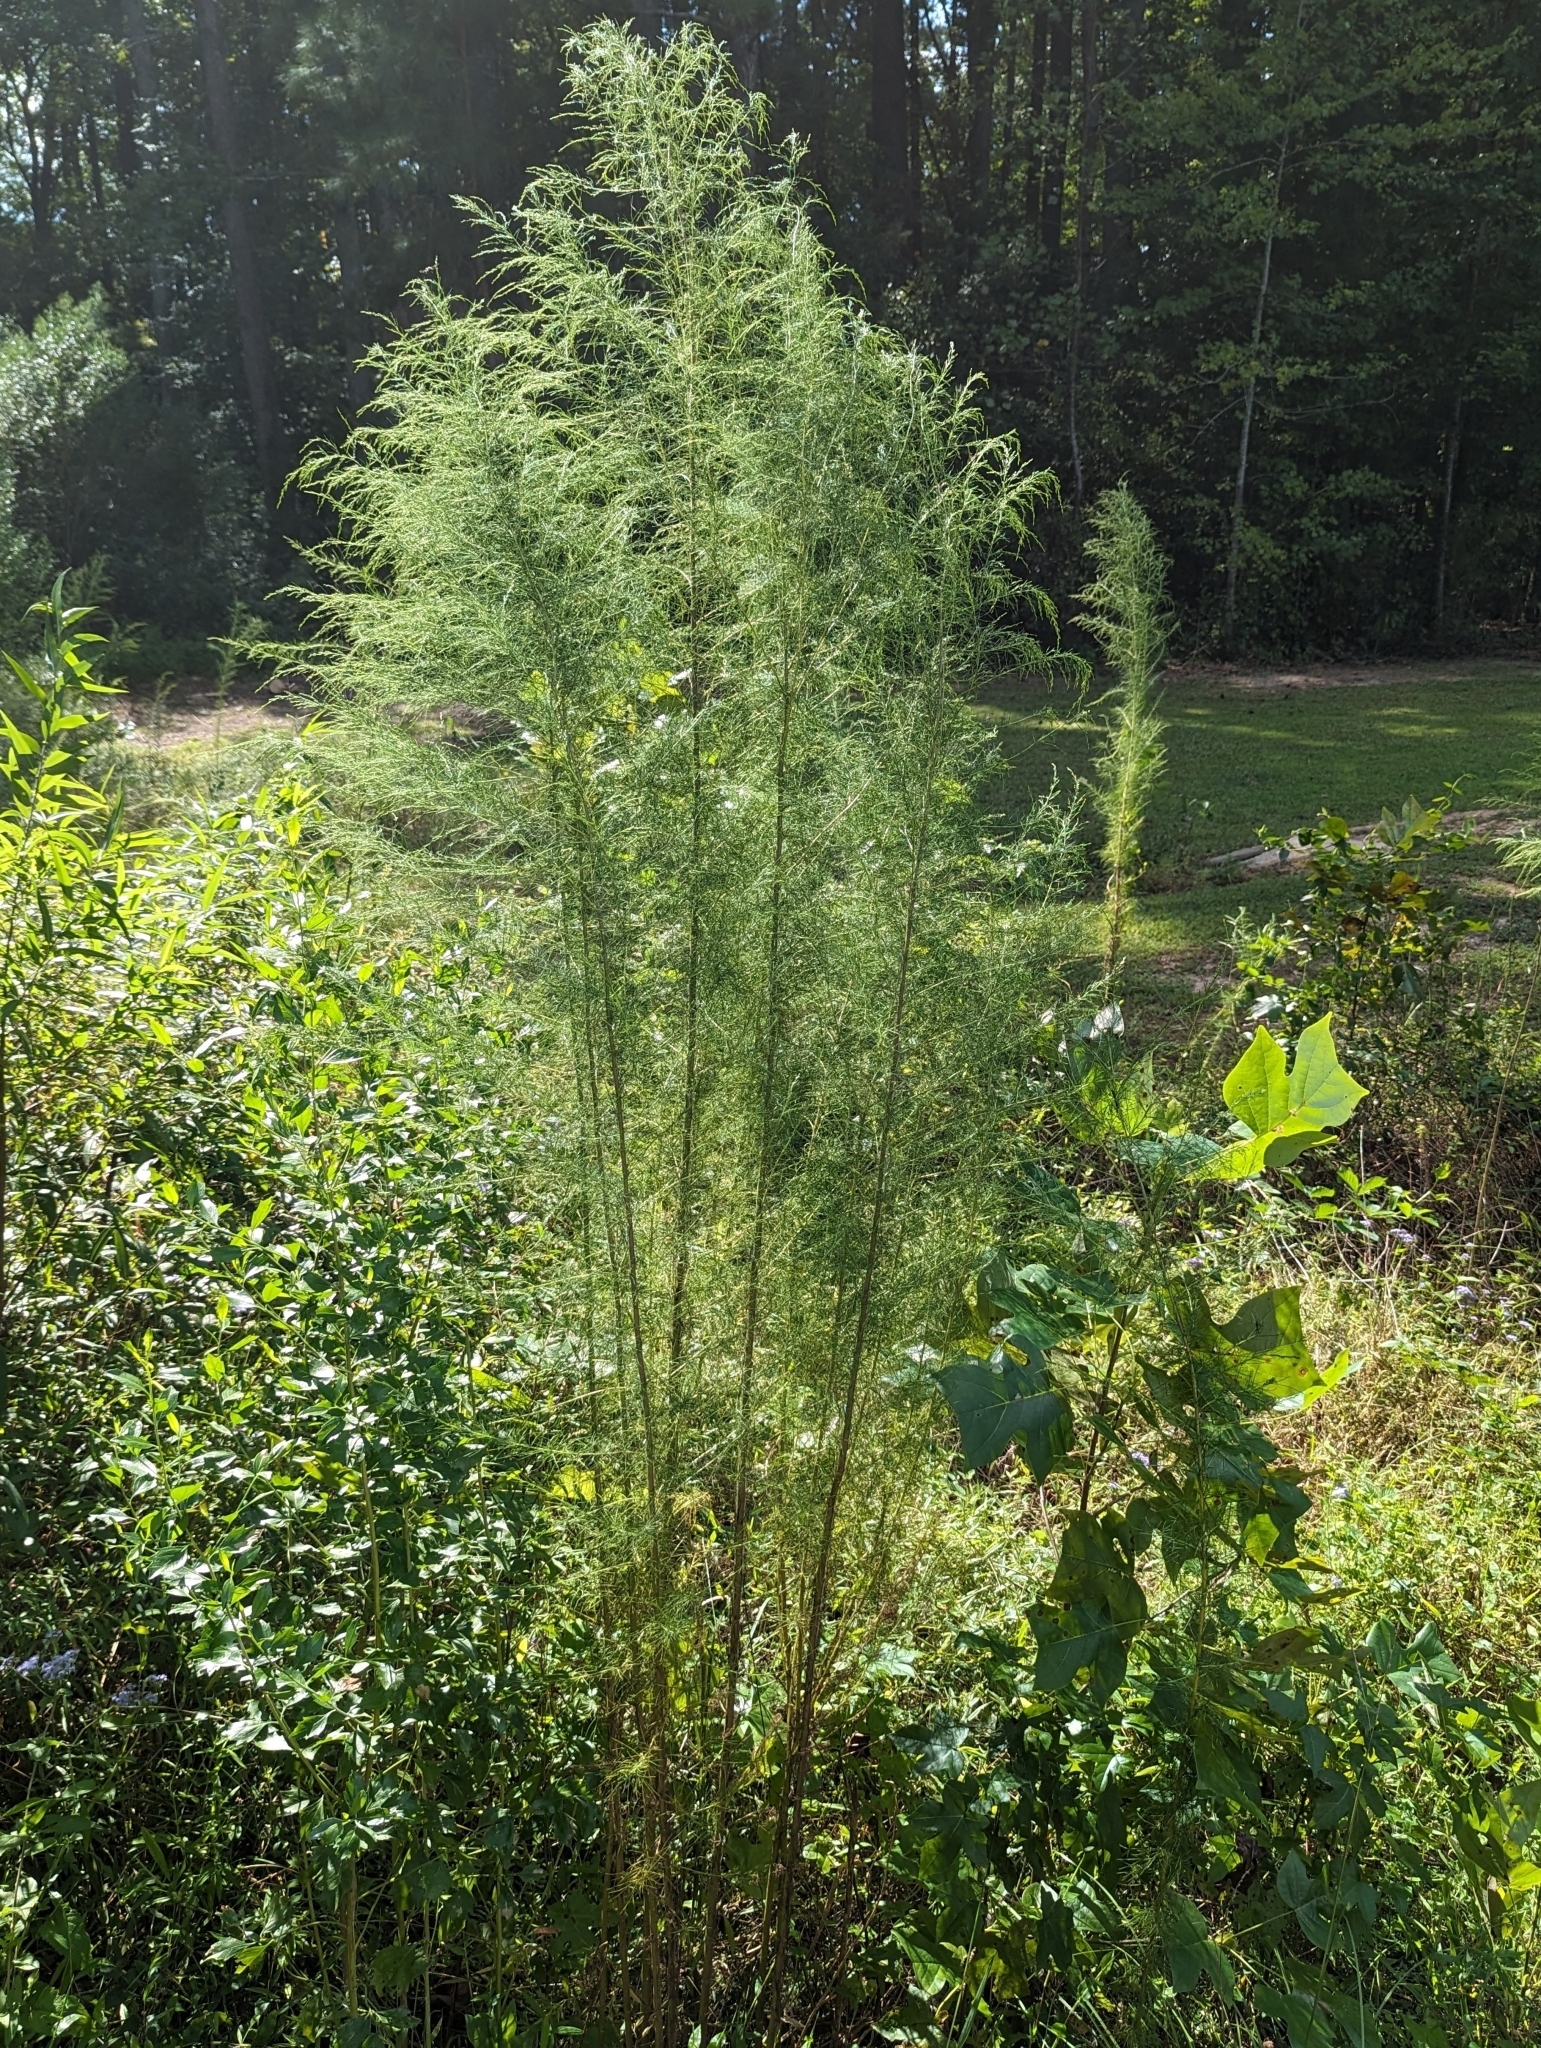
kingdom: Plantae
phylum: Tracheophyta
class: Magnoliopsida
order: Asterales
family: Asteraceae
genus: Eupatorium
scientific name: Eupatorium capillifolium
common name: Dog-fennel
